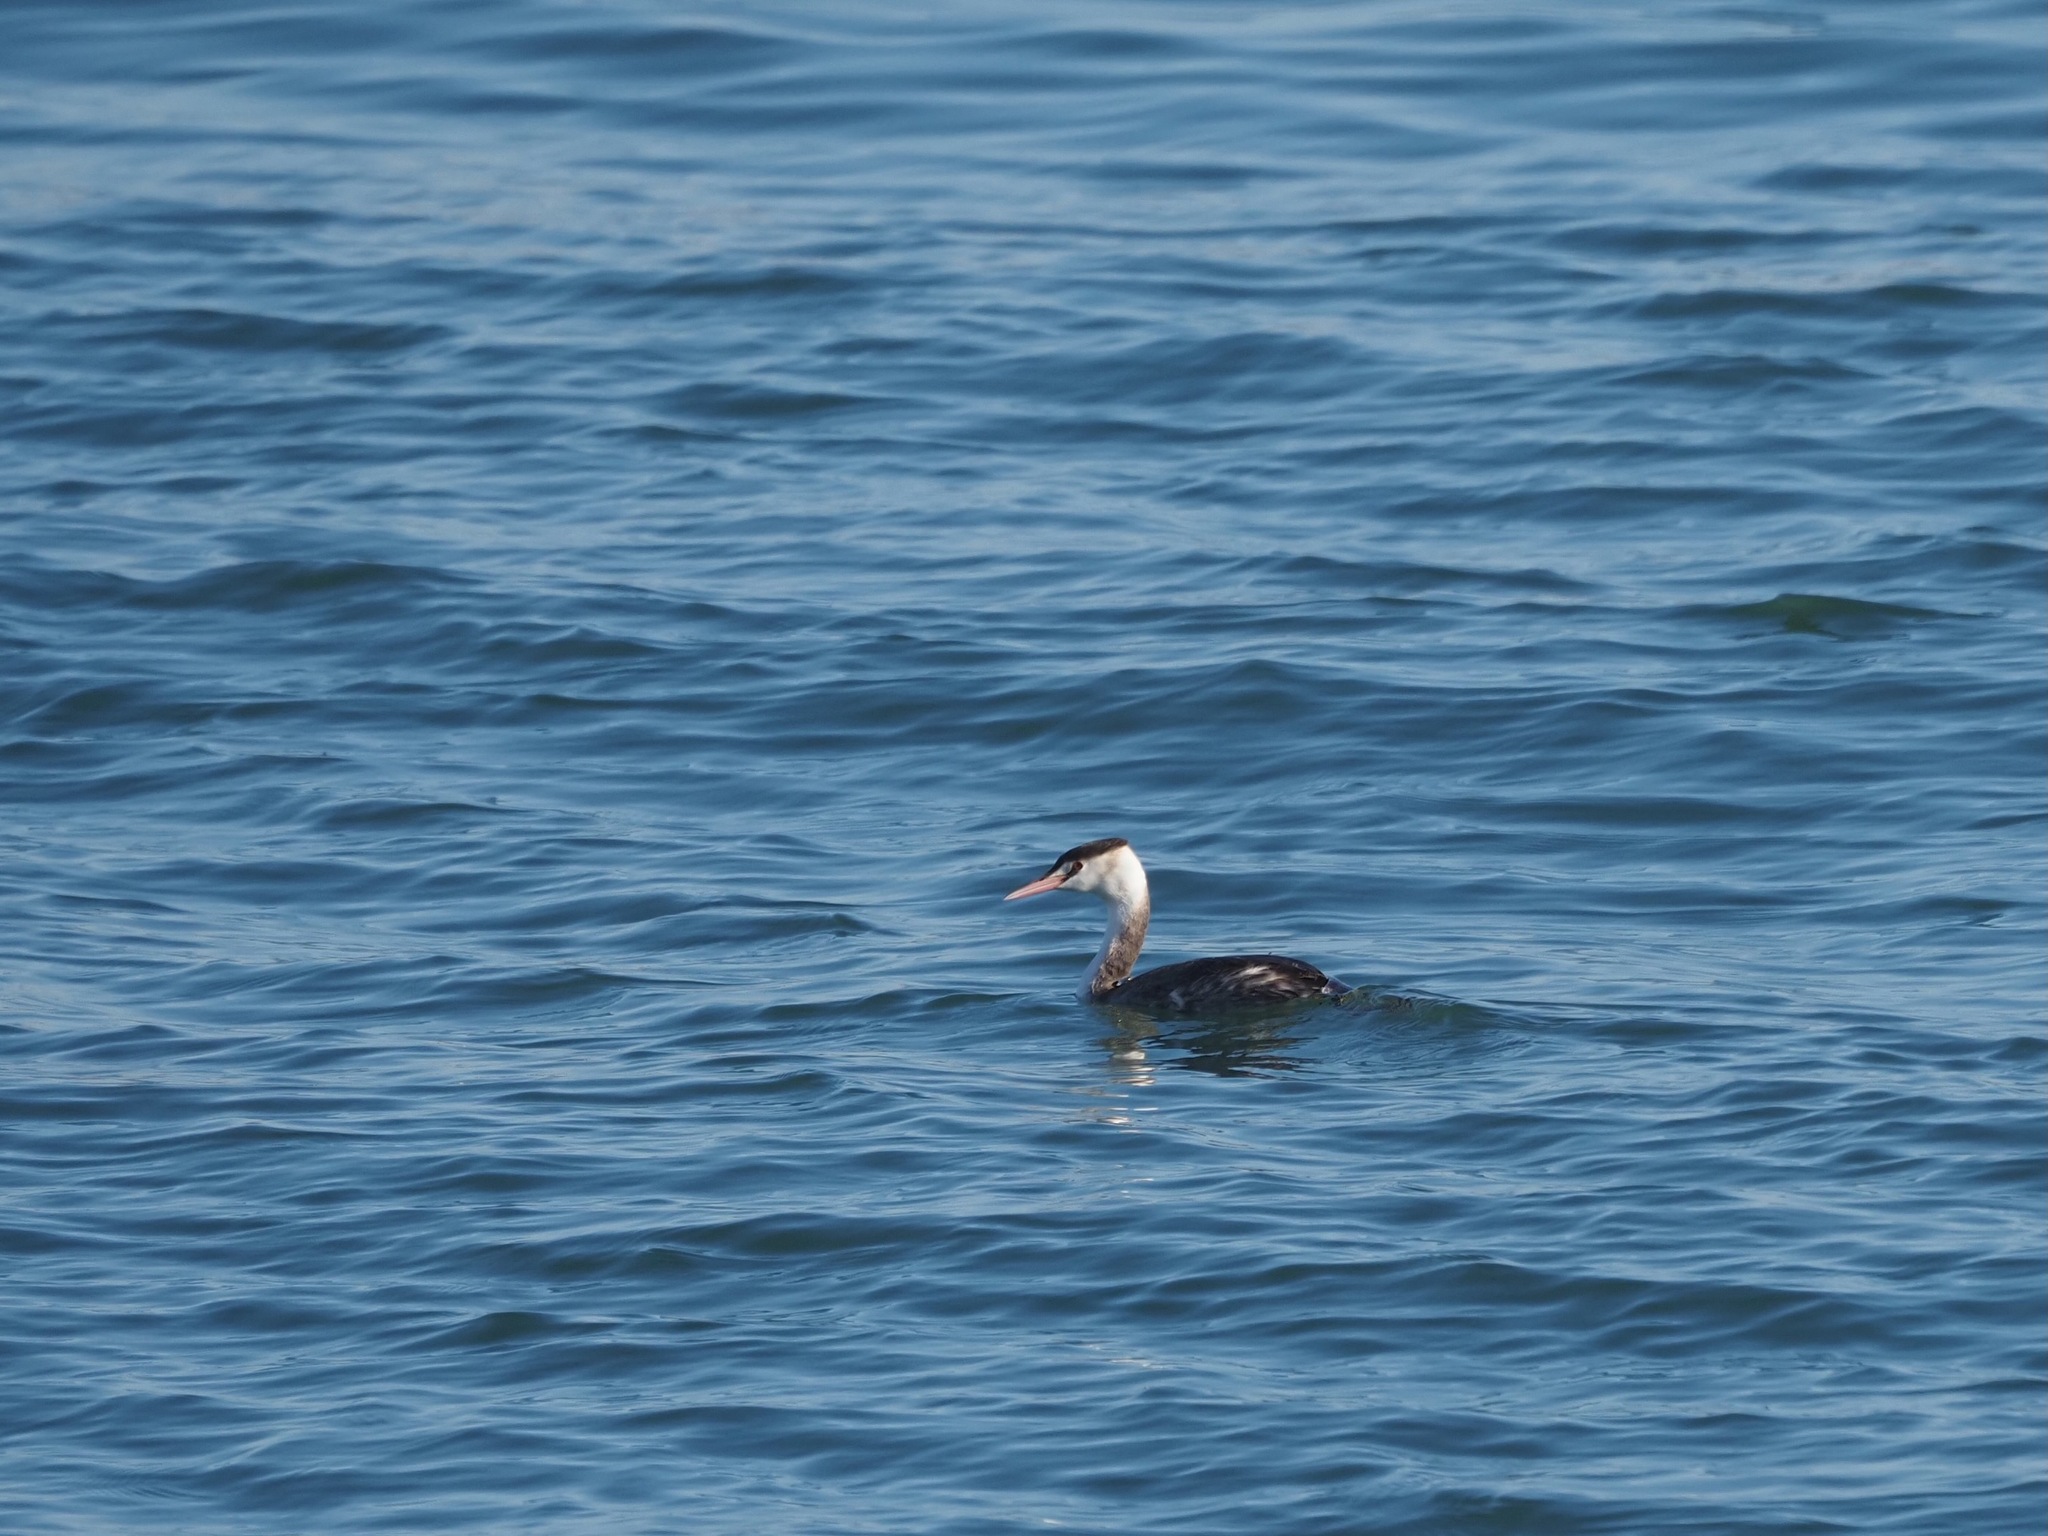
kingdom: Animalia
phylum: Chordata
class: Aves
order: Podicipediformes
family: Podicipedidae
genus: Podiceps
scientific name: Podiceps cristatus
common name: Great crested grebe
